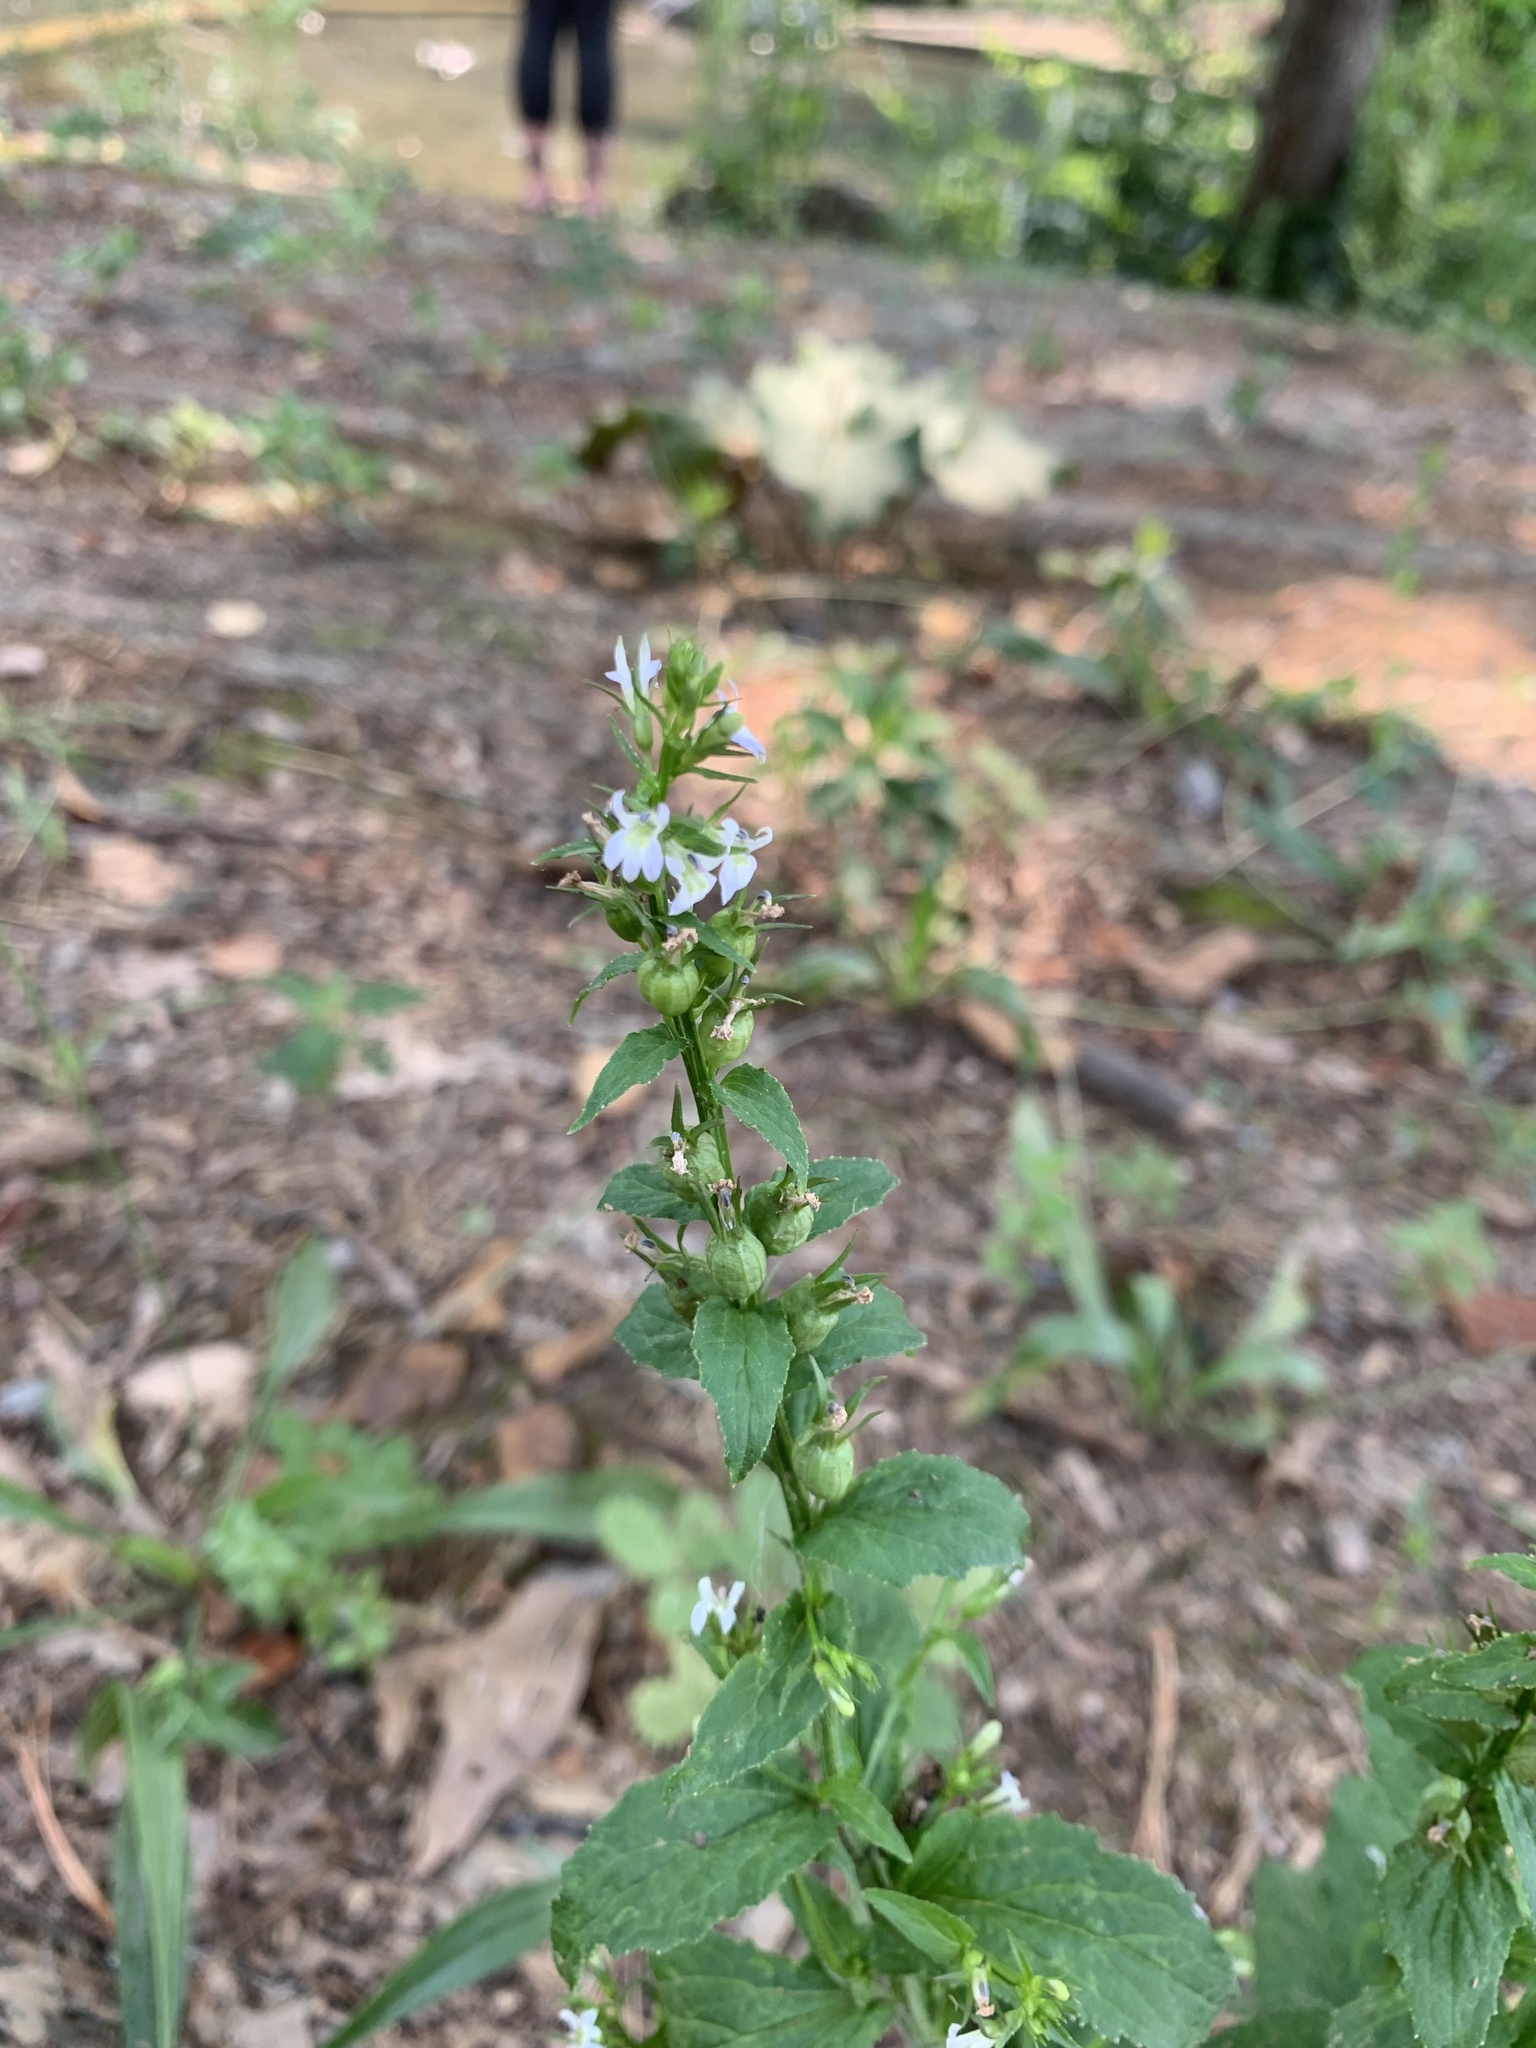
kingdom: Plantae
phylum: Tracheophyta
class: Magnoliopsida
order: Asterales
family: Campanulaceae
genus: Lobelia
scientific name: Lobelia inflata
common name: Indian tobacco
